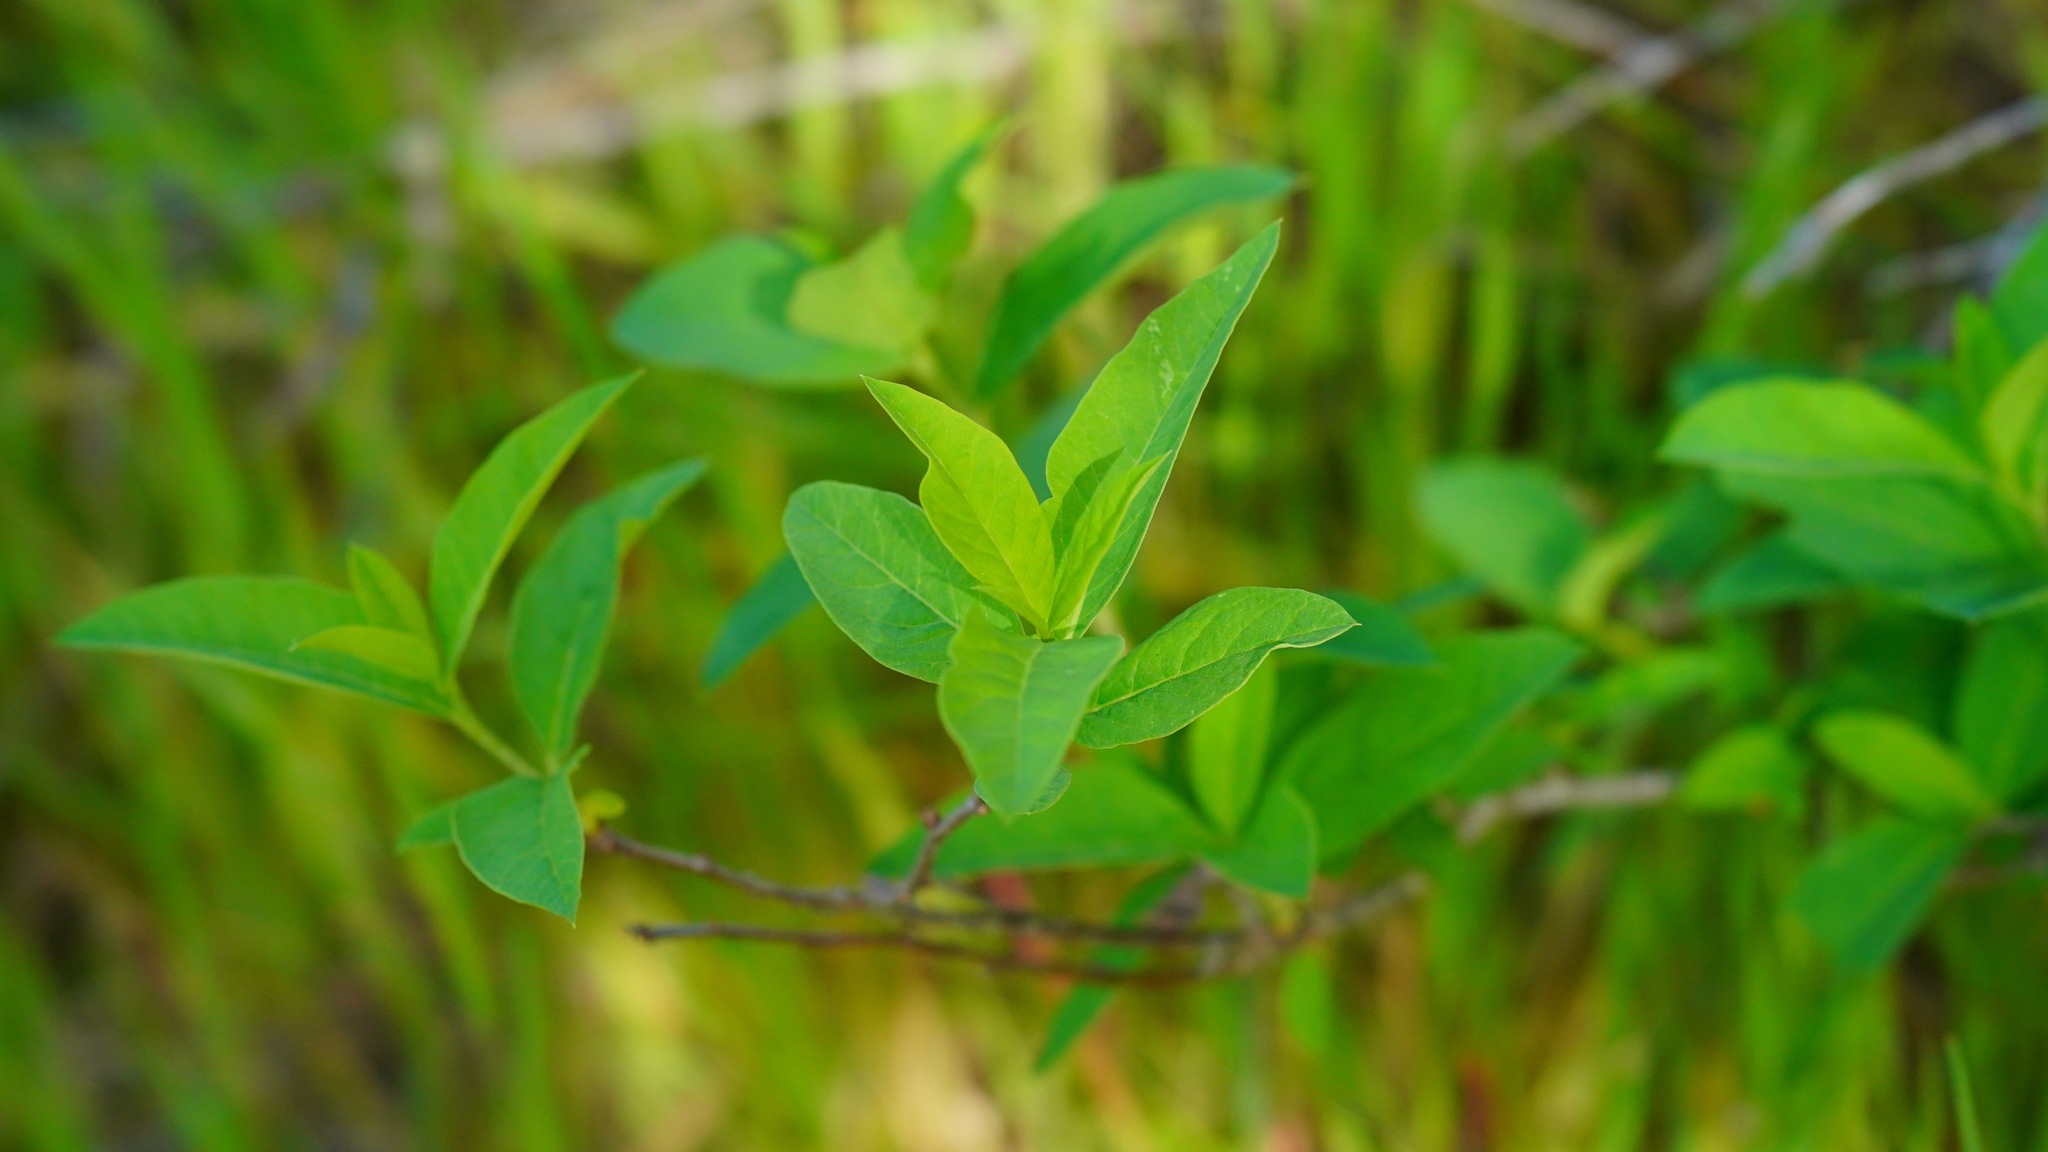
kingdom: Plantae
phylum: Tracheophyta
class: Magnoliopsida
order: Rosales
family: Rosaceae
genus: Oemleria
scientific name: Oemleria cerasiformis
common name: Osoberry
